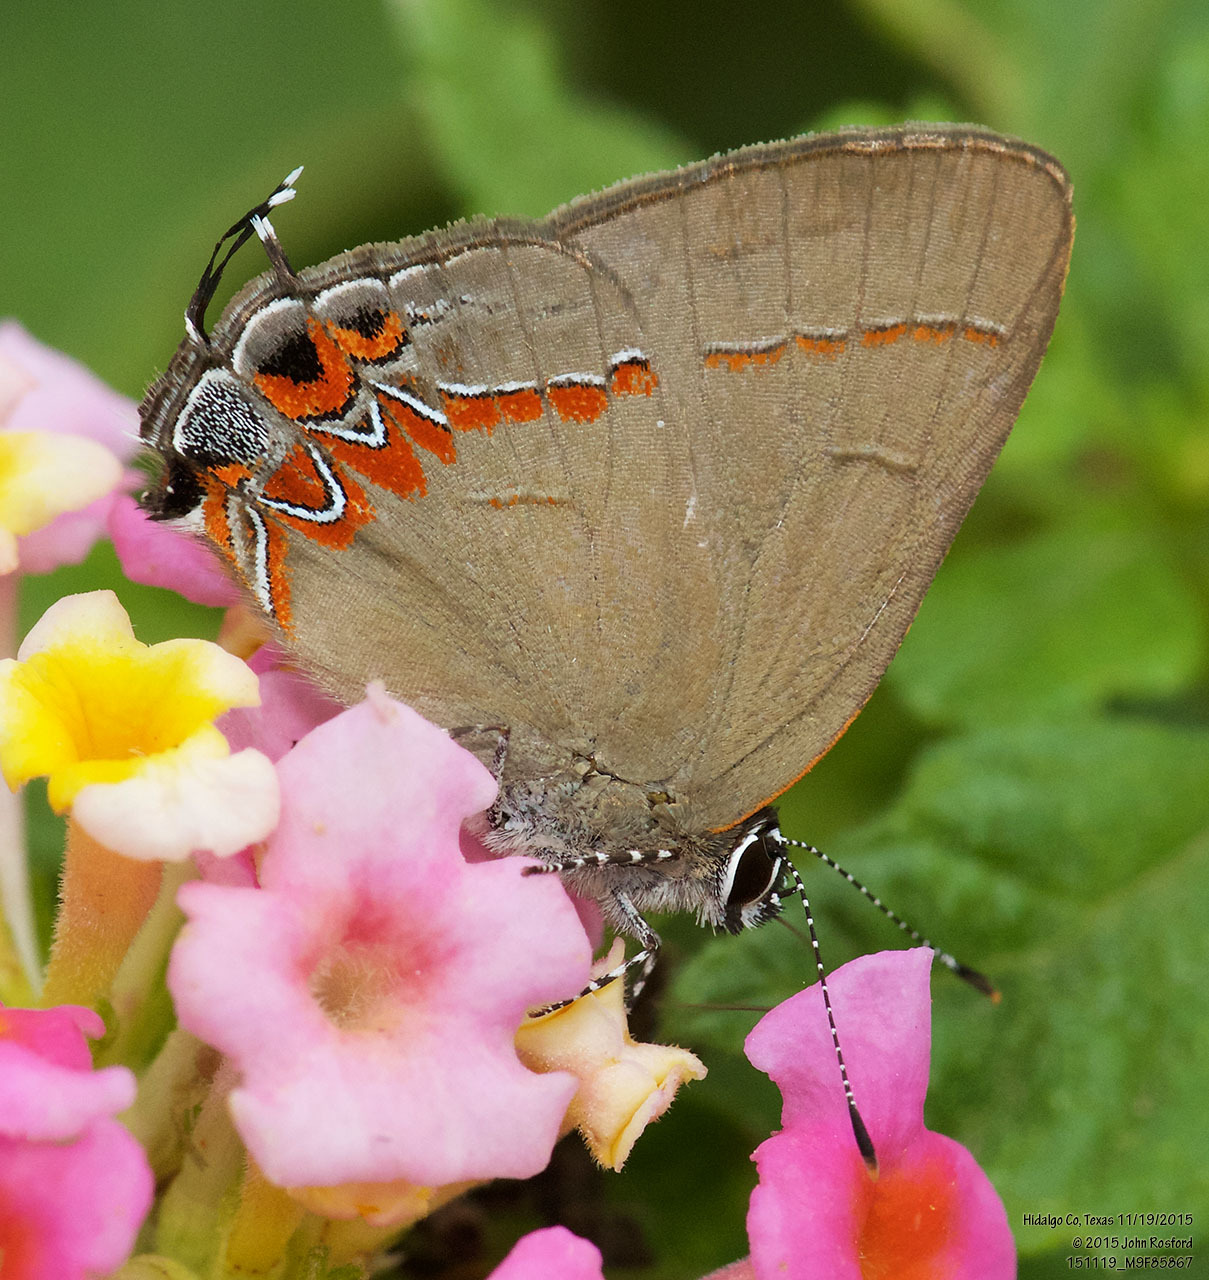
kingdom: Animalia
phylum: Arthropoda
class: Insecta
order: Lepidoptera
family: Lycaenidae
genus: Calycopis
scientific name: Calycopis isobeon
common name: Dusky-blue groundstreak
